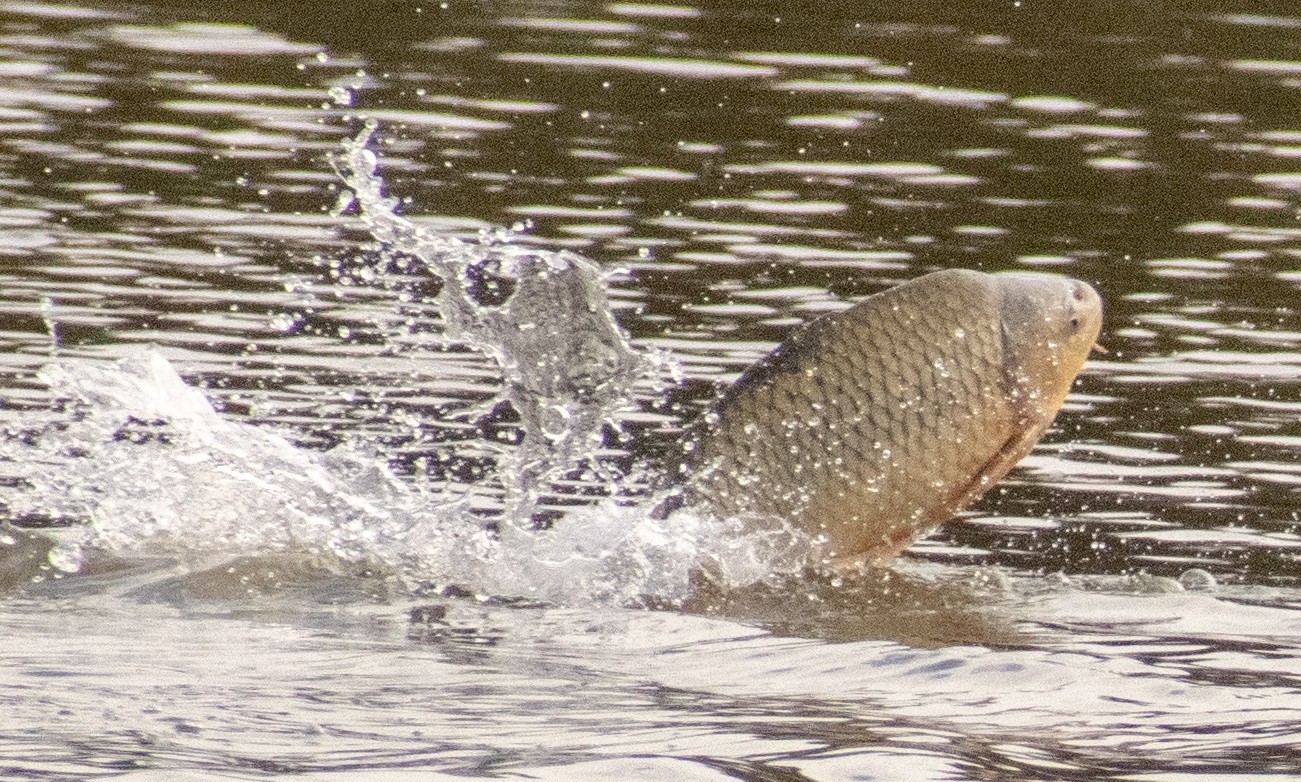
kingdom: Animalia
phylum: Chordata
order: Cypriniformes
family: Cyprinidae
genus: Cyprinus
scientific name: Cyprinus carpio
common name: Common carp
